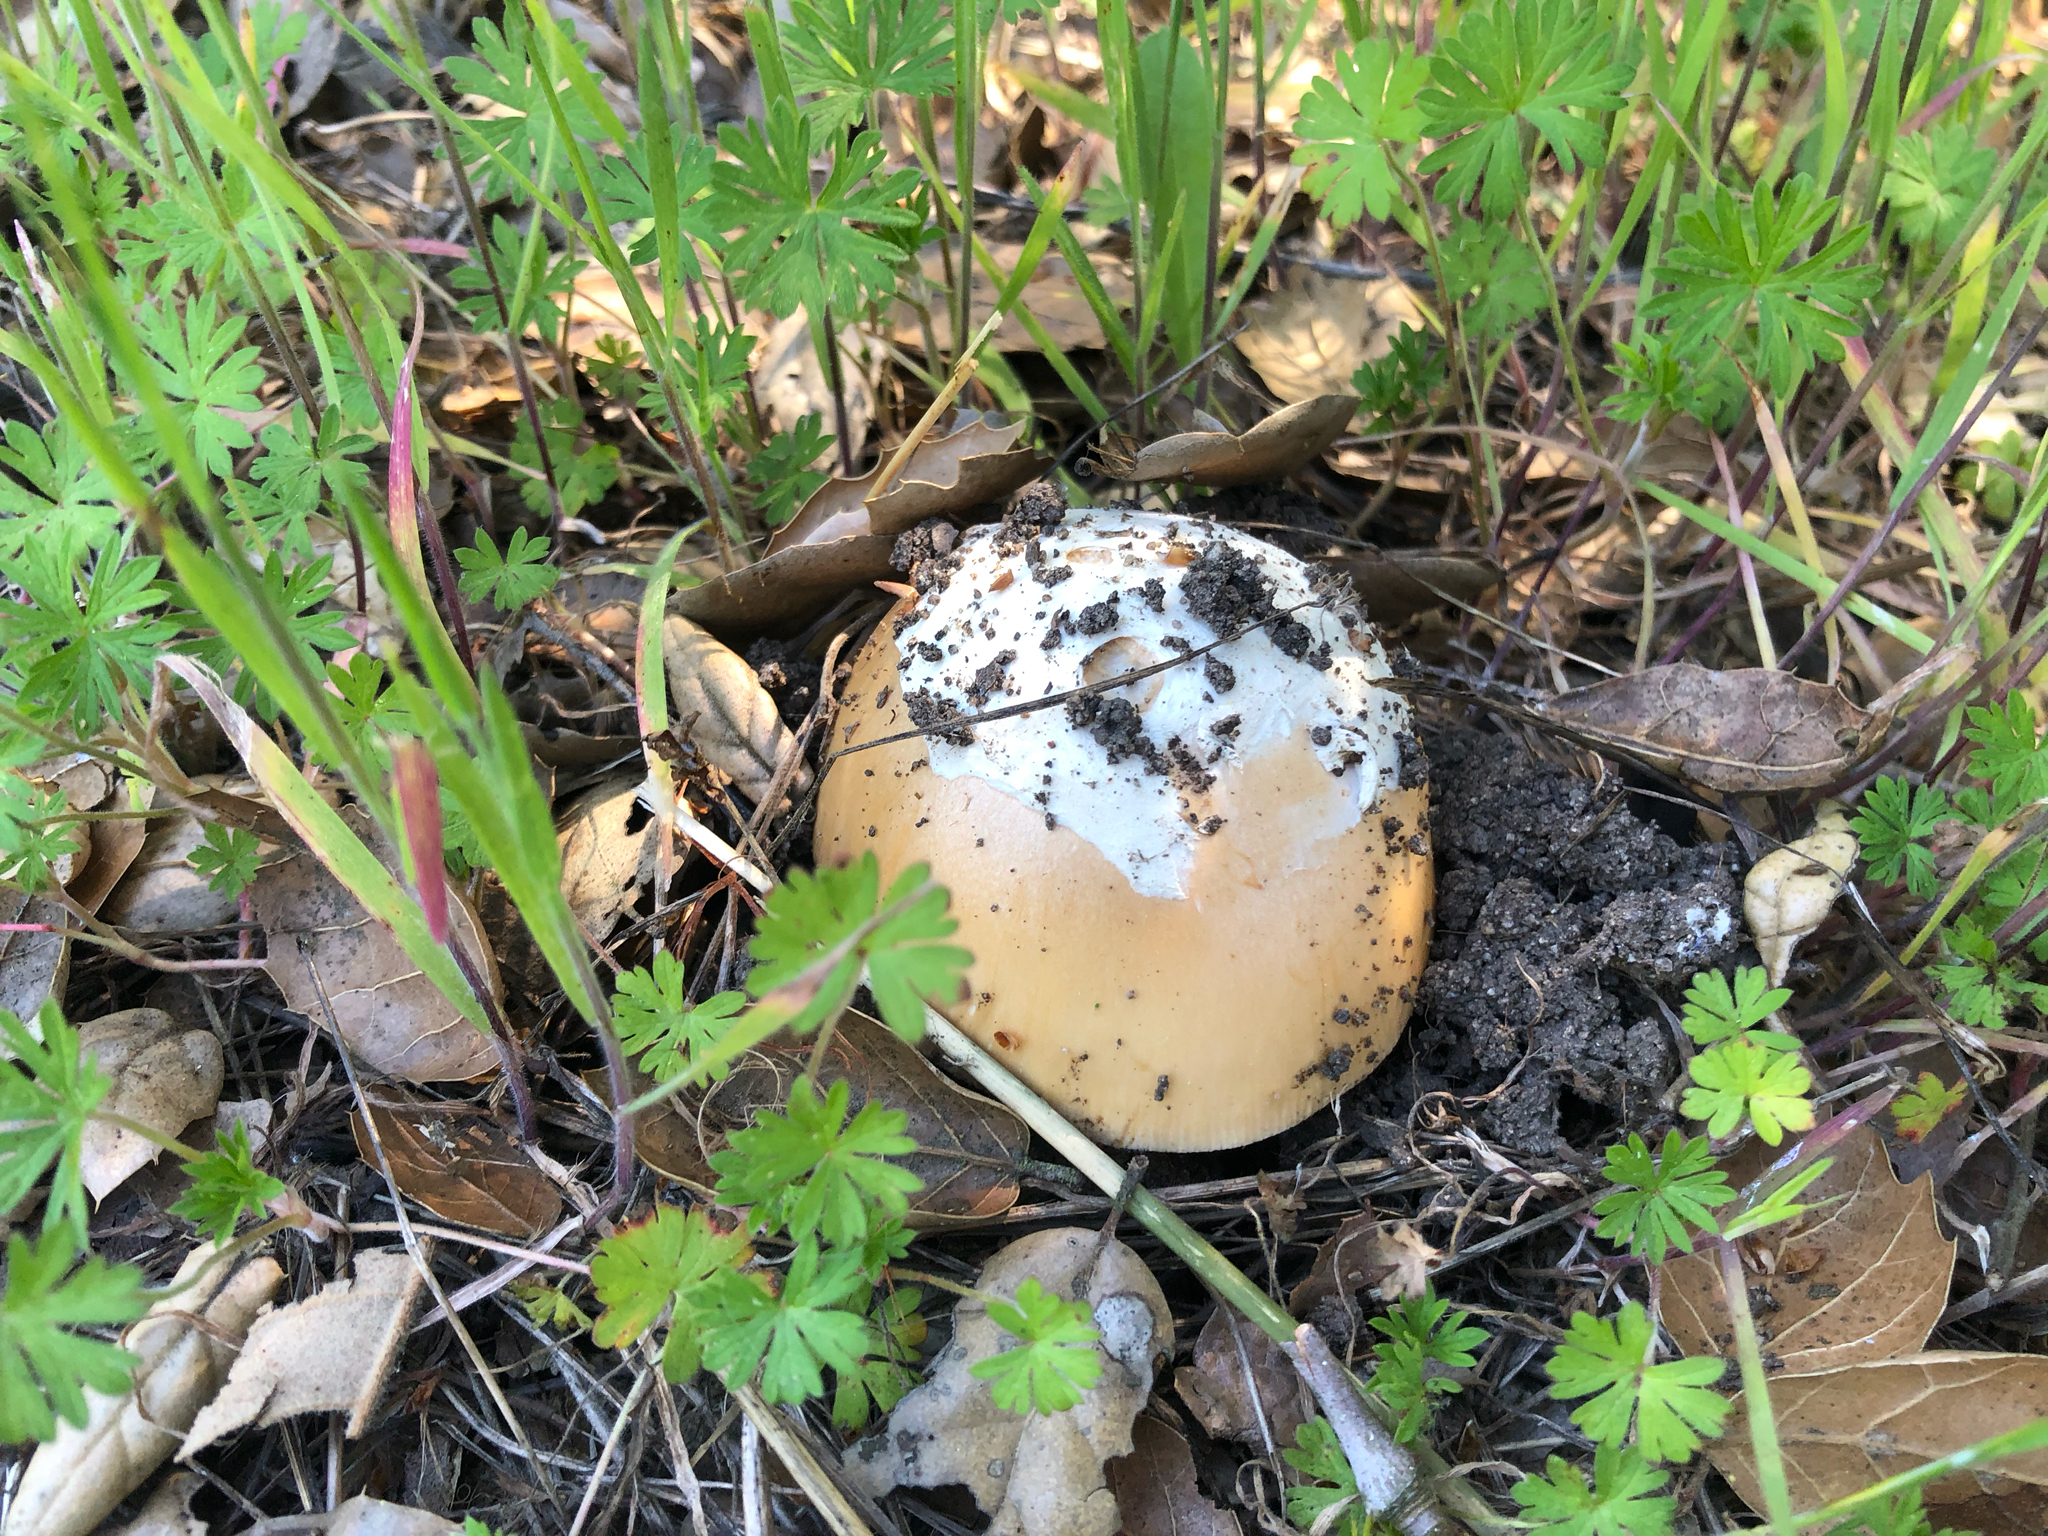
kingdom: Fungi
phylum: Basidiomycota
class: Agaricomycetes
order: Agaricales
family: Amanitaceae
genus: Amanita
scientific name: Amanita velosa
